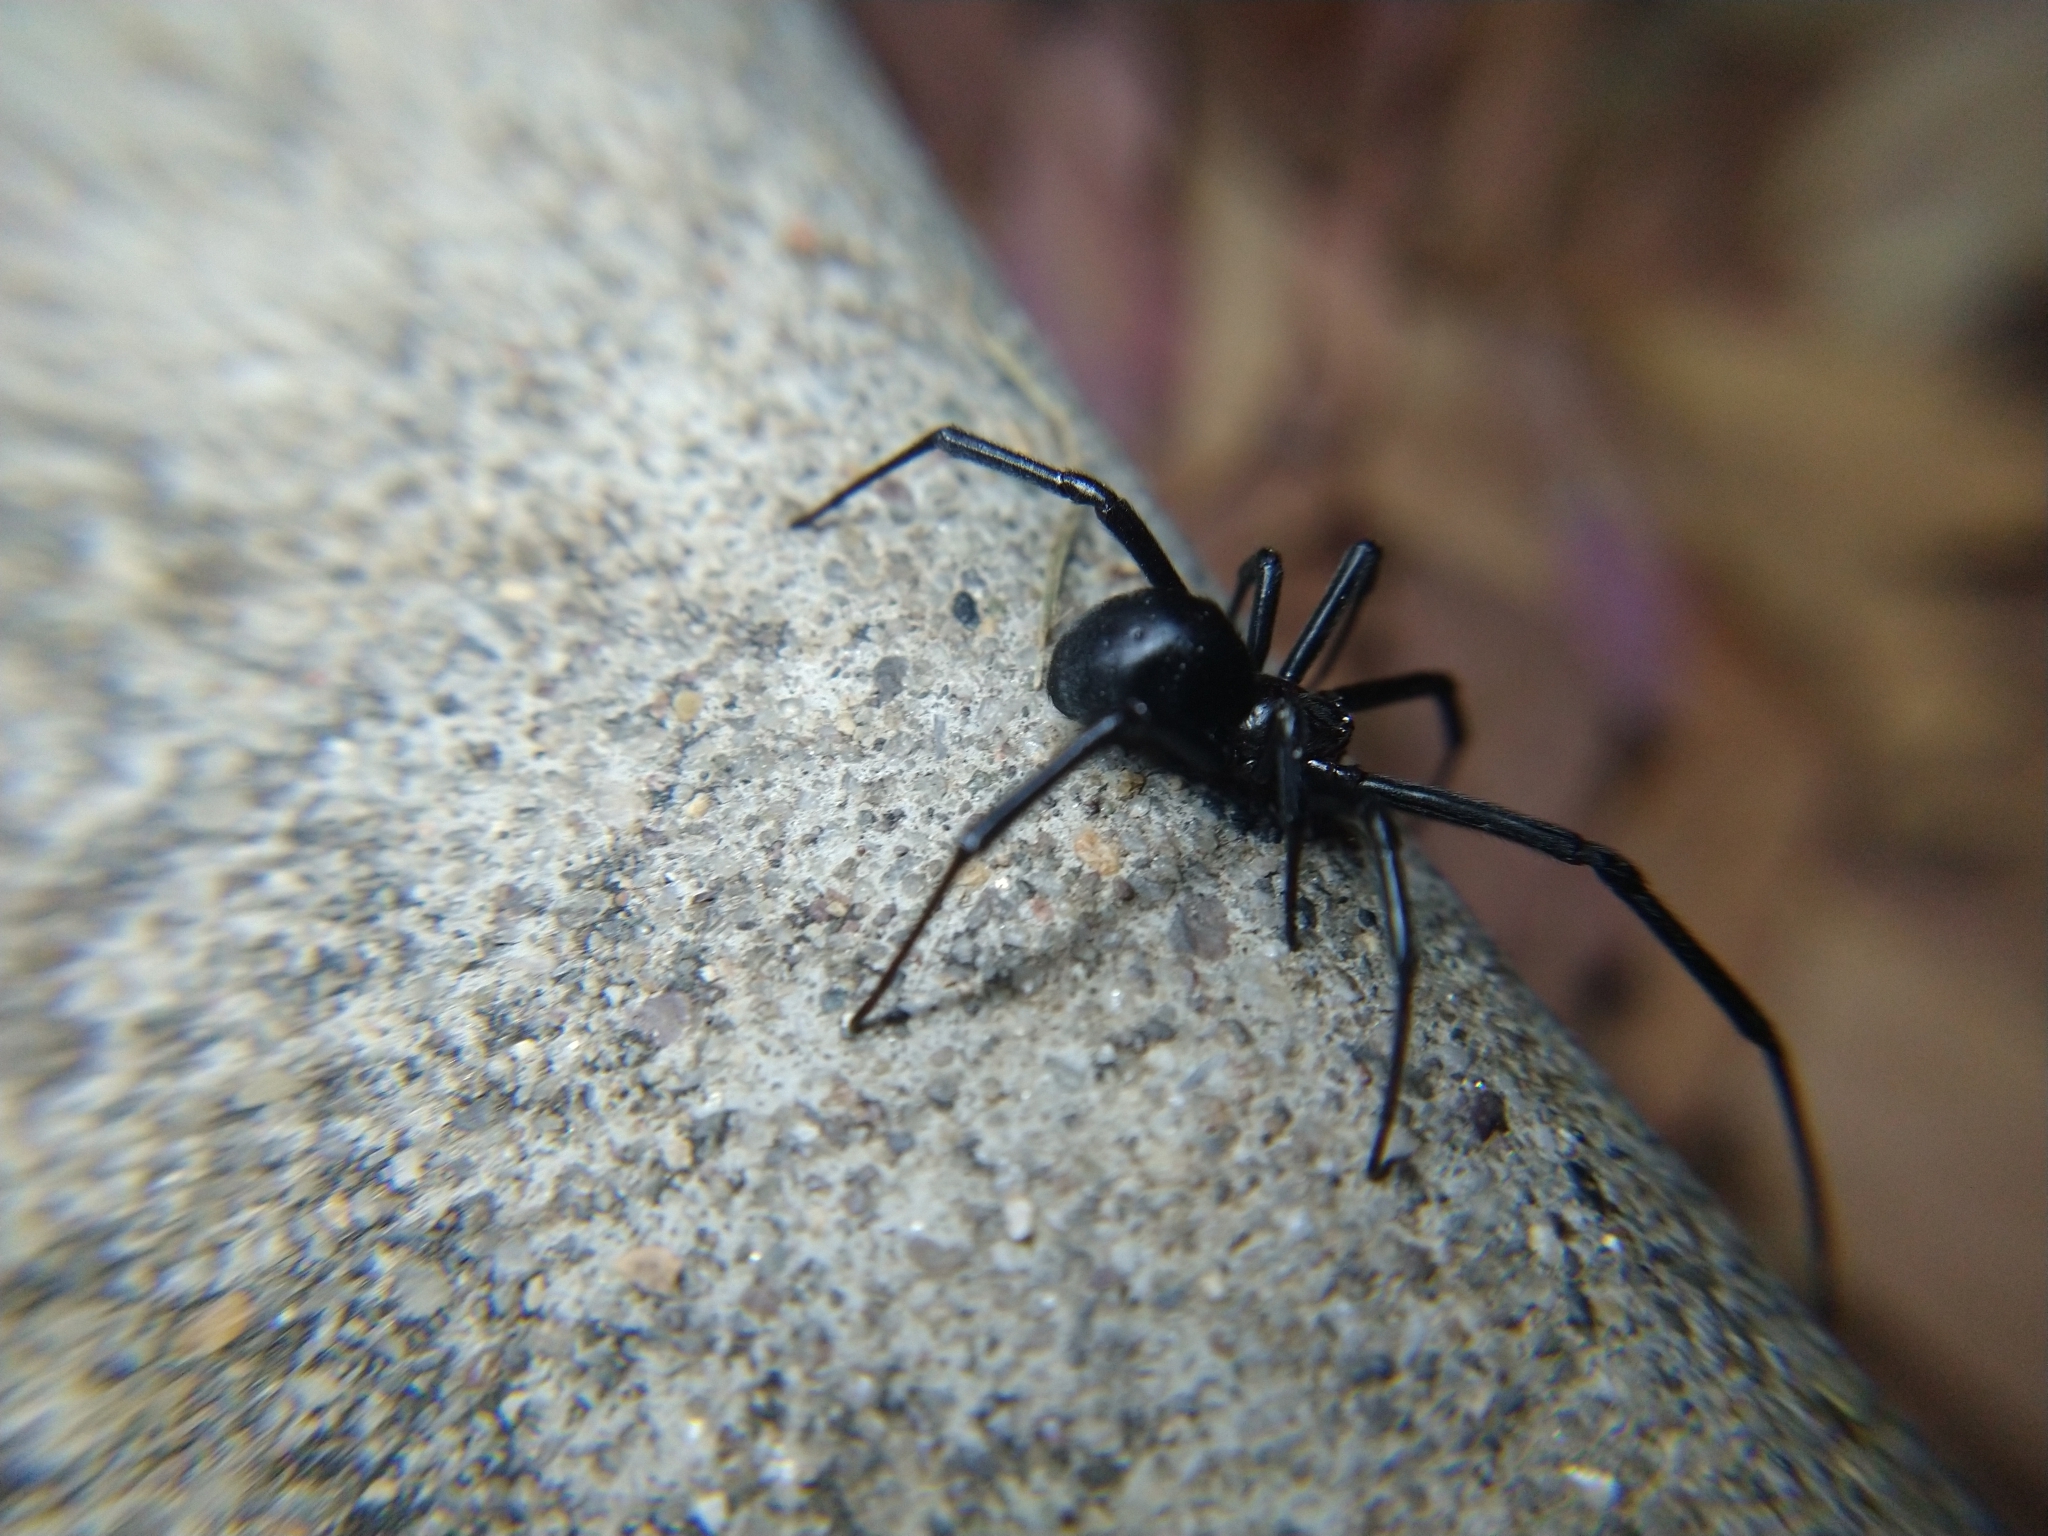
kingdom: Animalia
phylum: Arthropoda
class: Arachnida
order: Araneae
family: Theridiidae
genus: Latrodectus
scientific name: Latrodectus hesperus
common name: Western black widow
